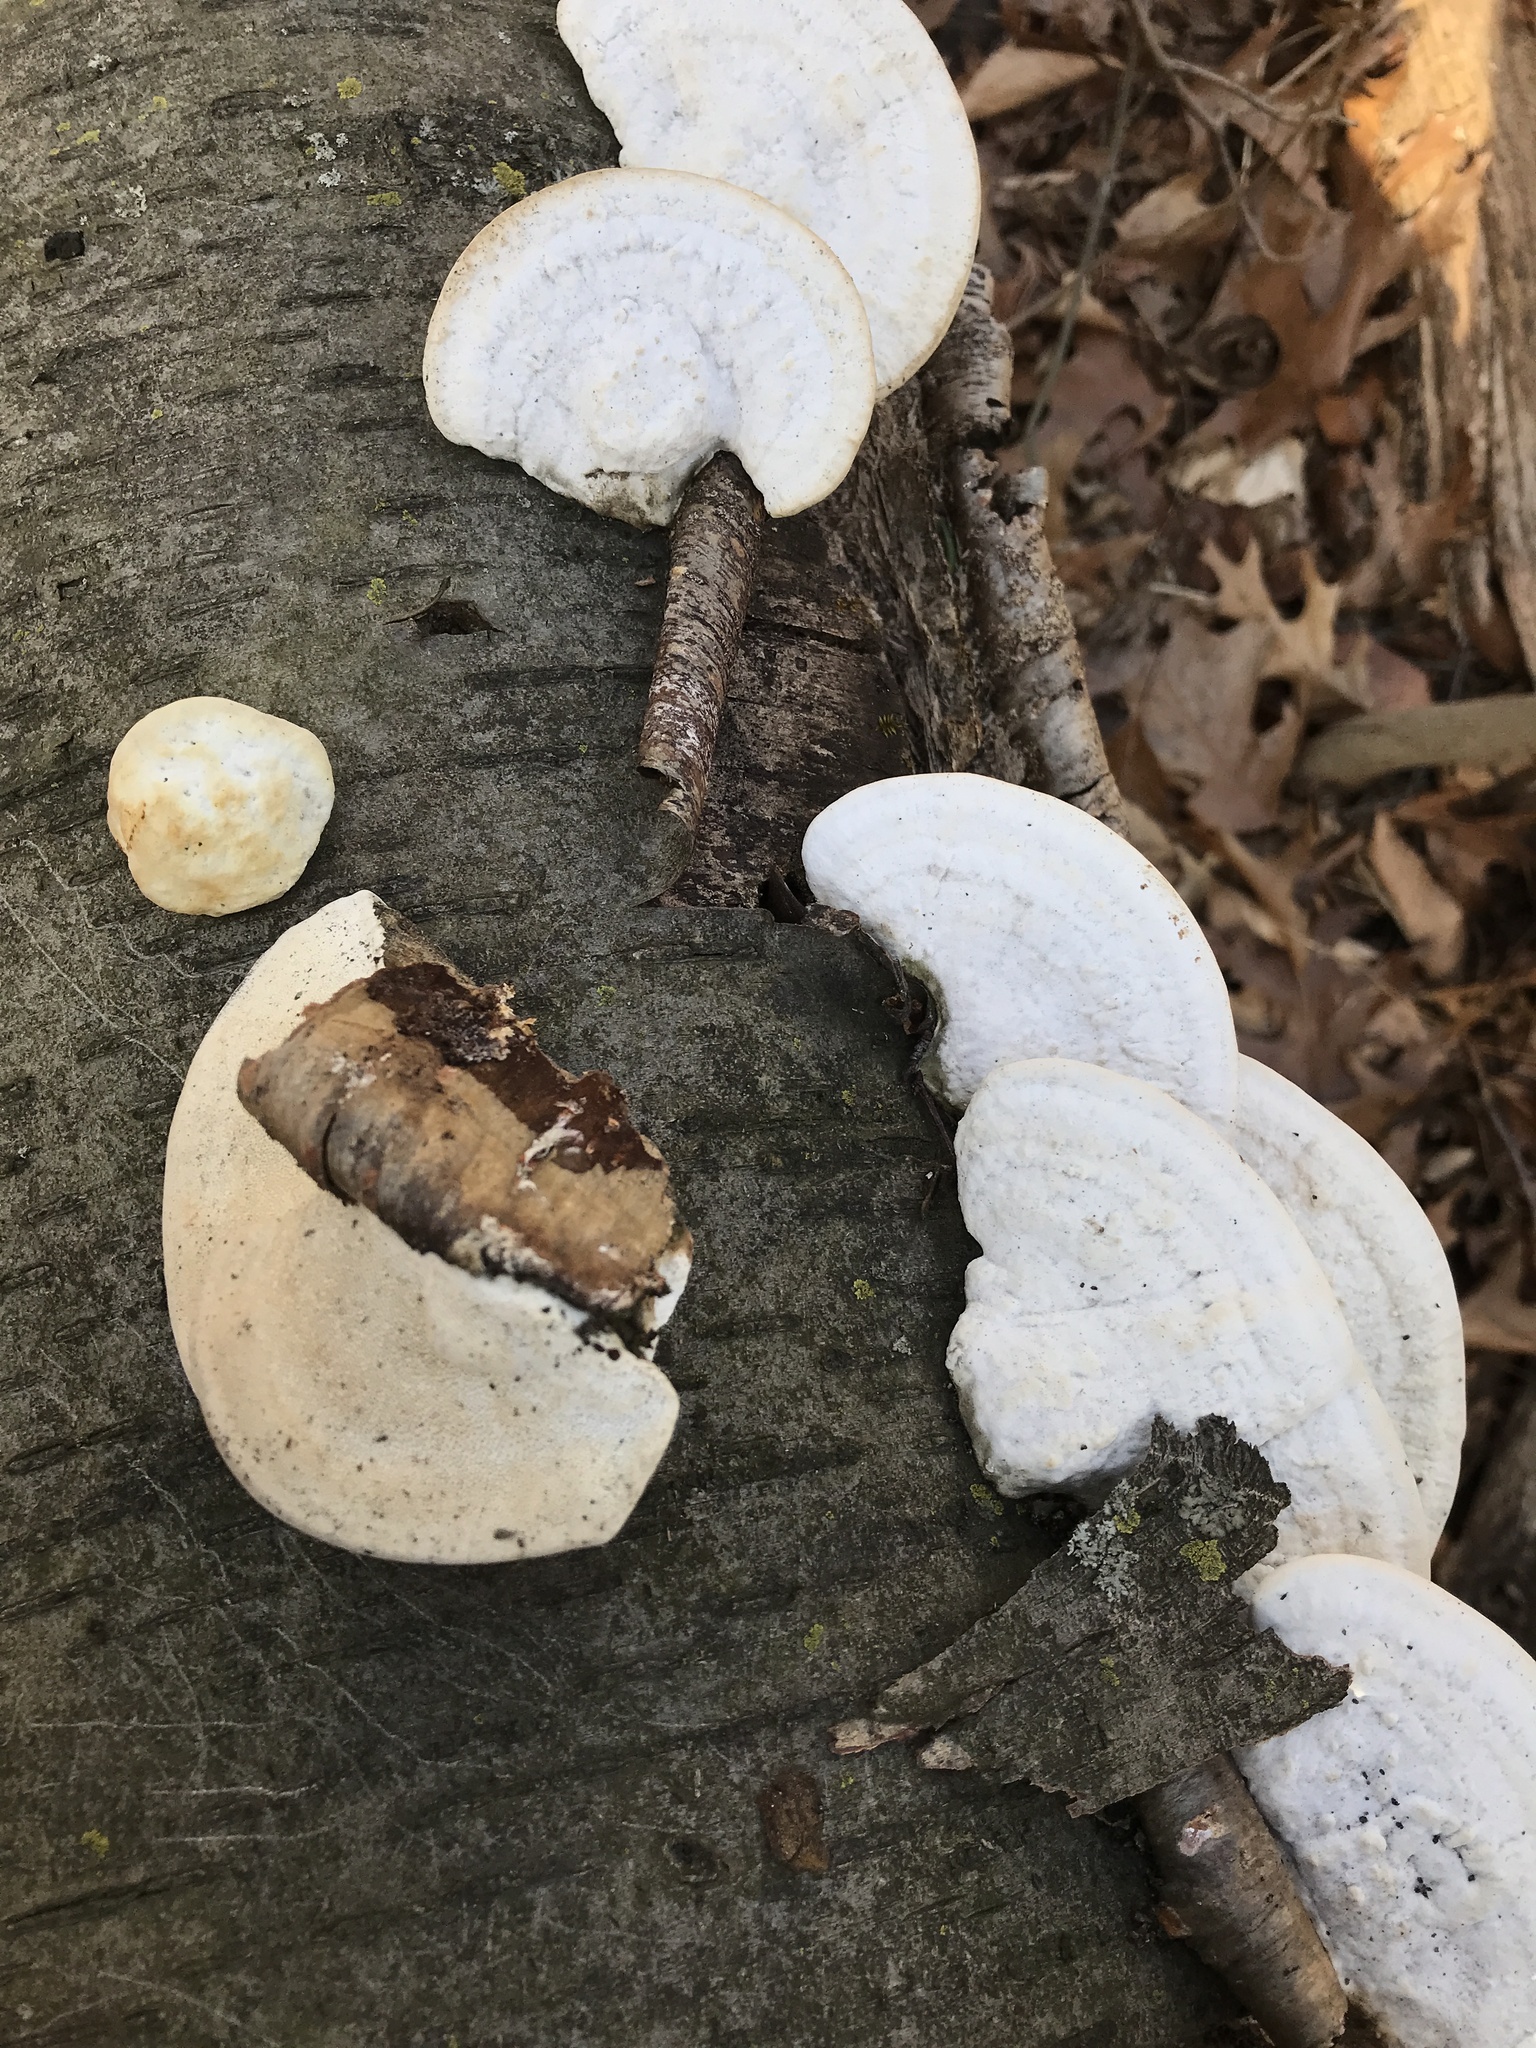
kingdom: Fungi
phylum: Basidiomycota
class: Agaricomycetes
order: Polyporales
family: Polyporaceae
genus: Trametes
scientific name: Trametes lactinea
